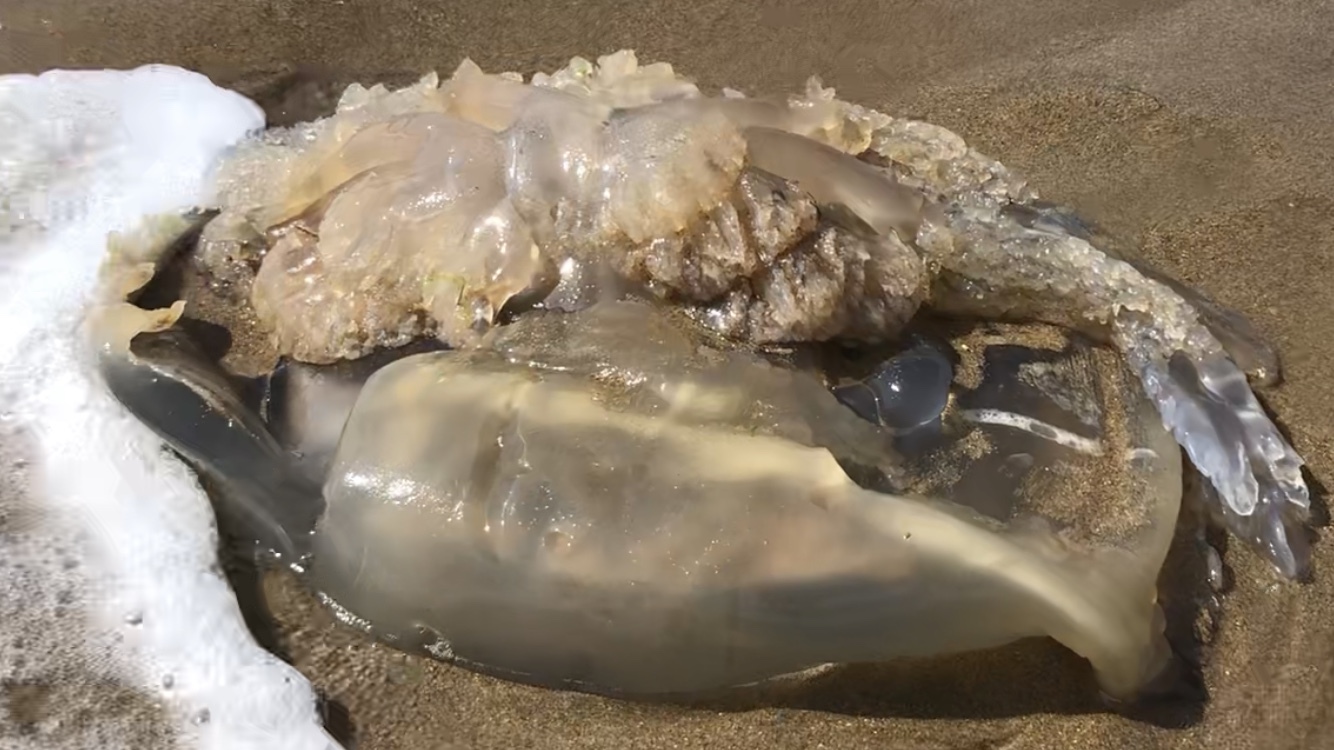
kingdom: Animalia
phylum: Cnidaria
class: Scyphozoa
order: Rhizostomeae
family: Rhizostomatidae
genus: Rhizostoma
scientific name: Rhizostoma octopus
